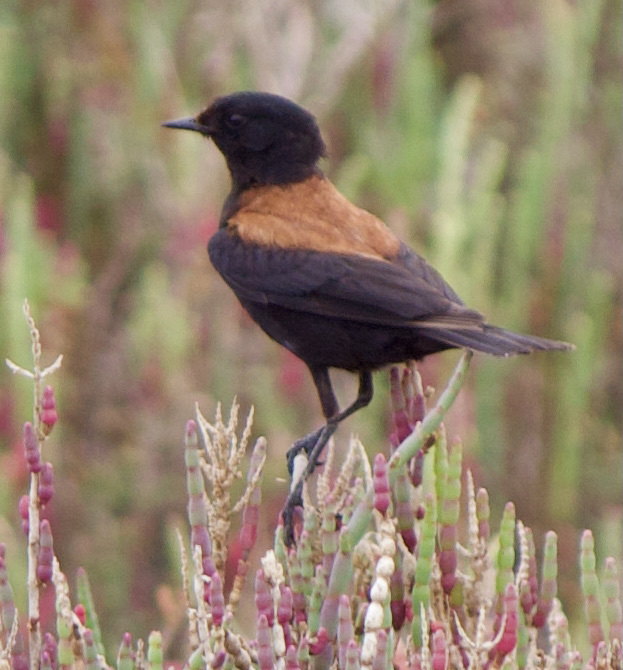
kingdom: Animalia
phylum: Chordata
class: Aves
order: Passeriformes
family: Tyrannidae
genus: Lessonia
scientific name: Lessonia rufa
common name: Austral negrito
